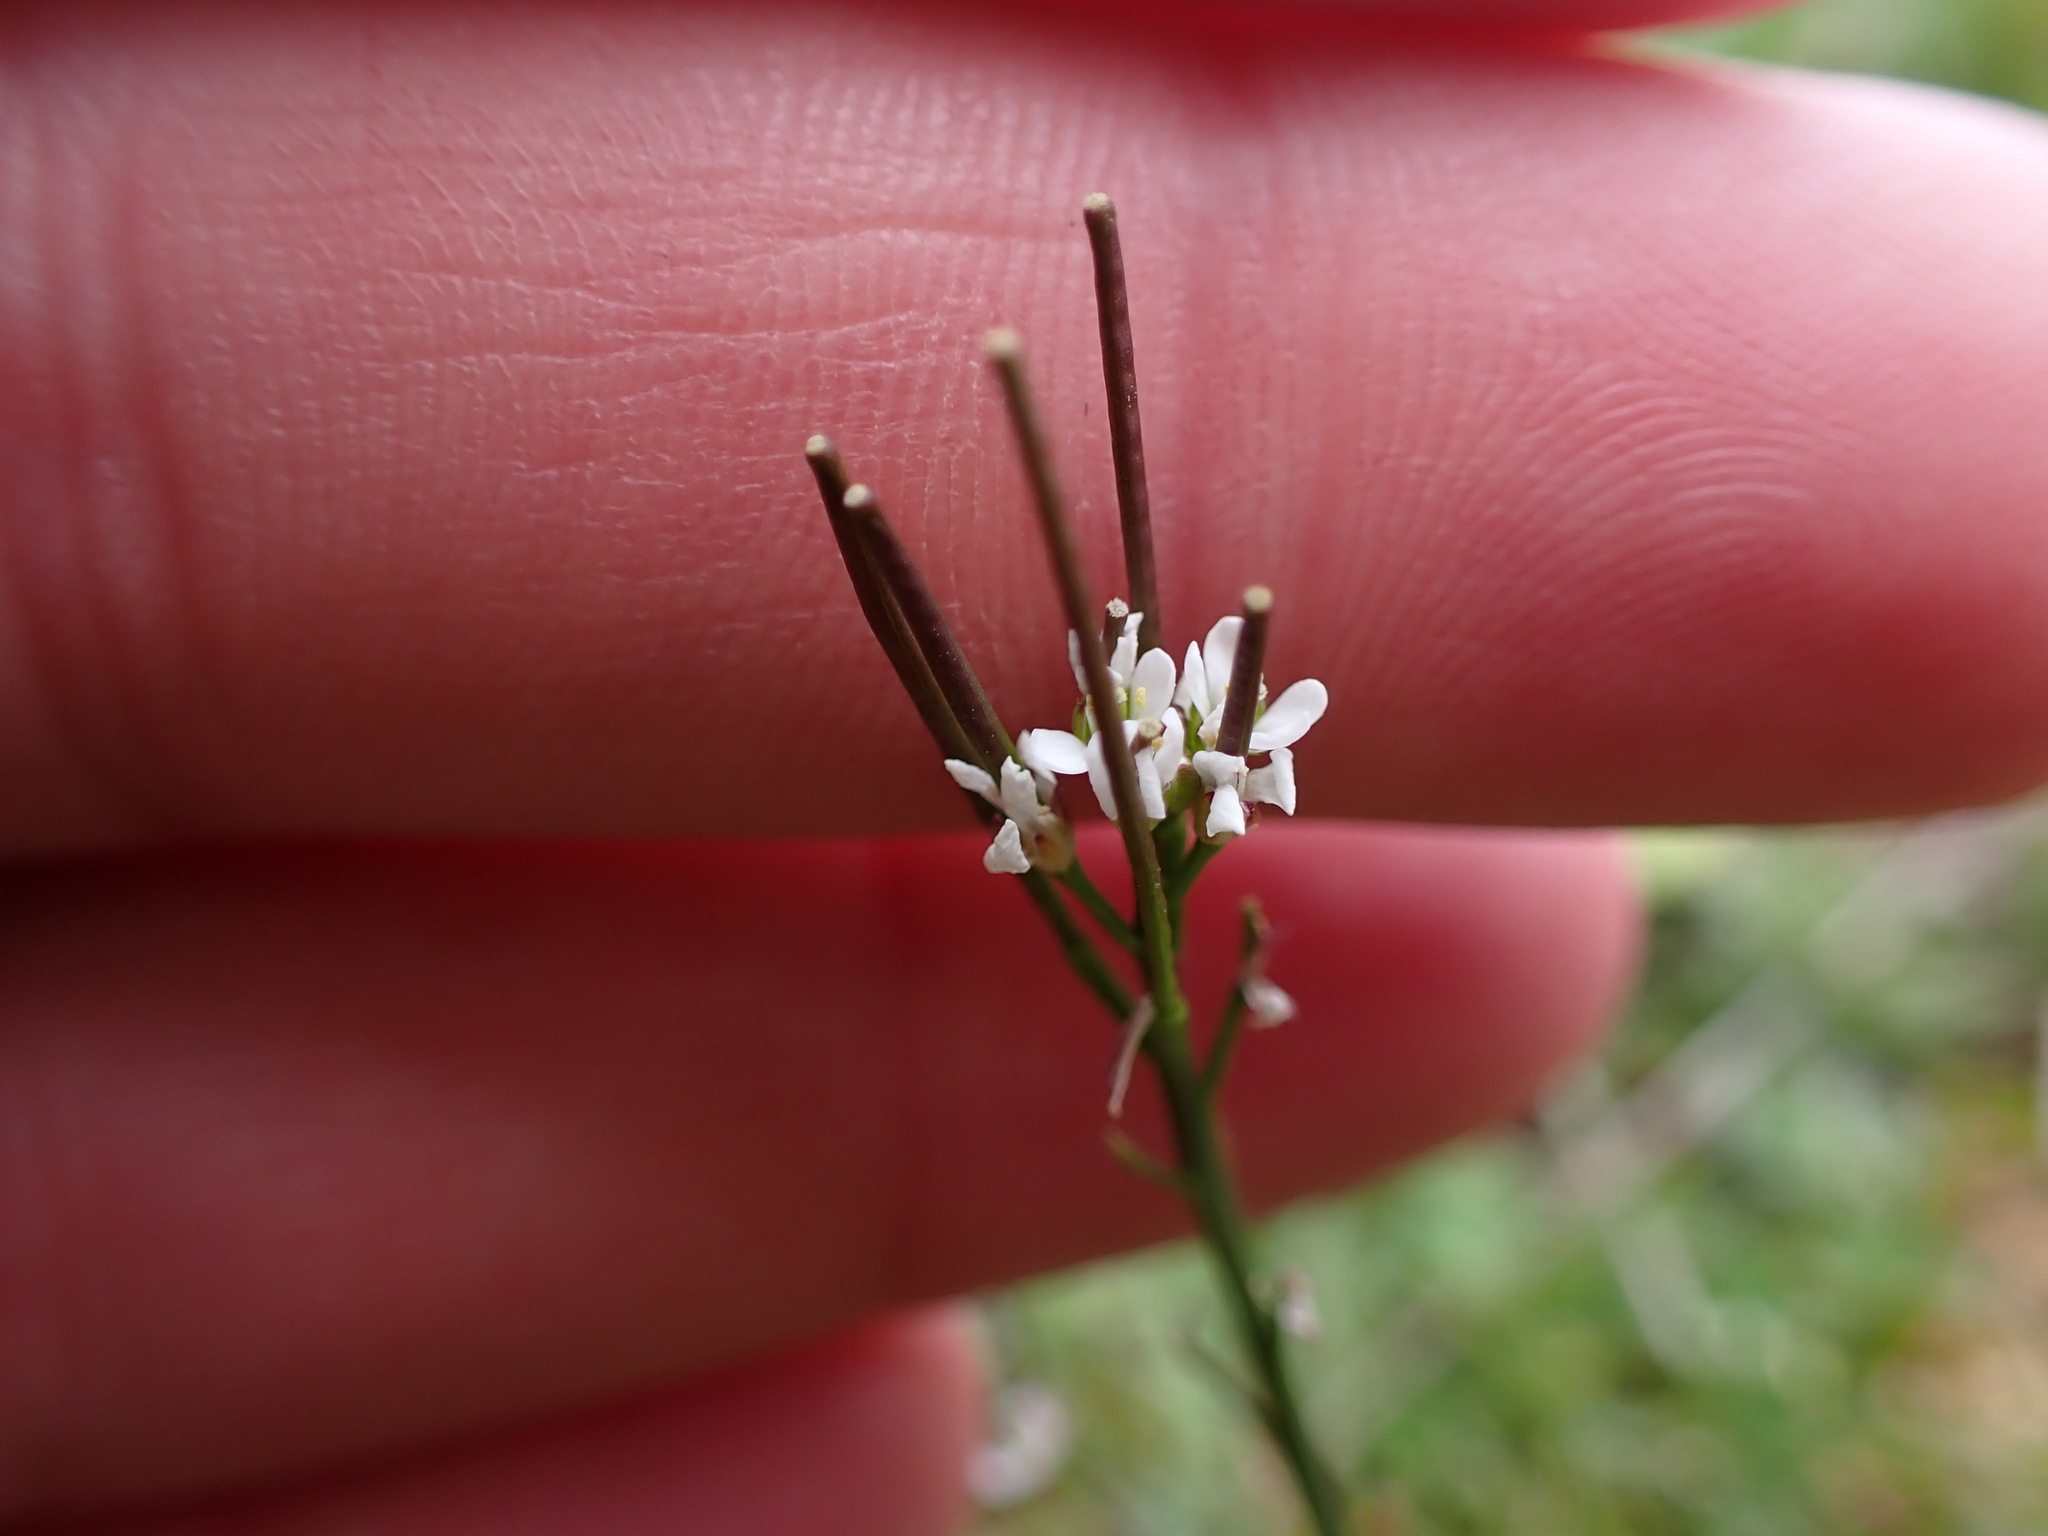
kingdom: Plantae
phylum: Tracheophyta
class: Magnoliopsida
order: Brassicales
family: Brassicaceae
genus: Cardamine
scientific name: Cardamine hirsuta
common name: Hairy bittercress
